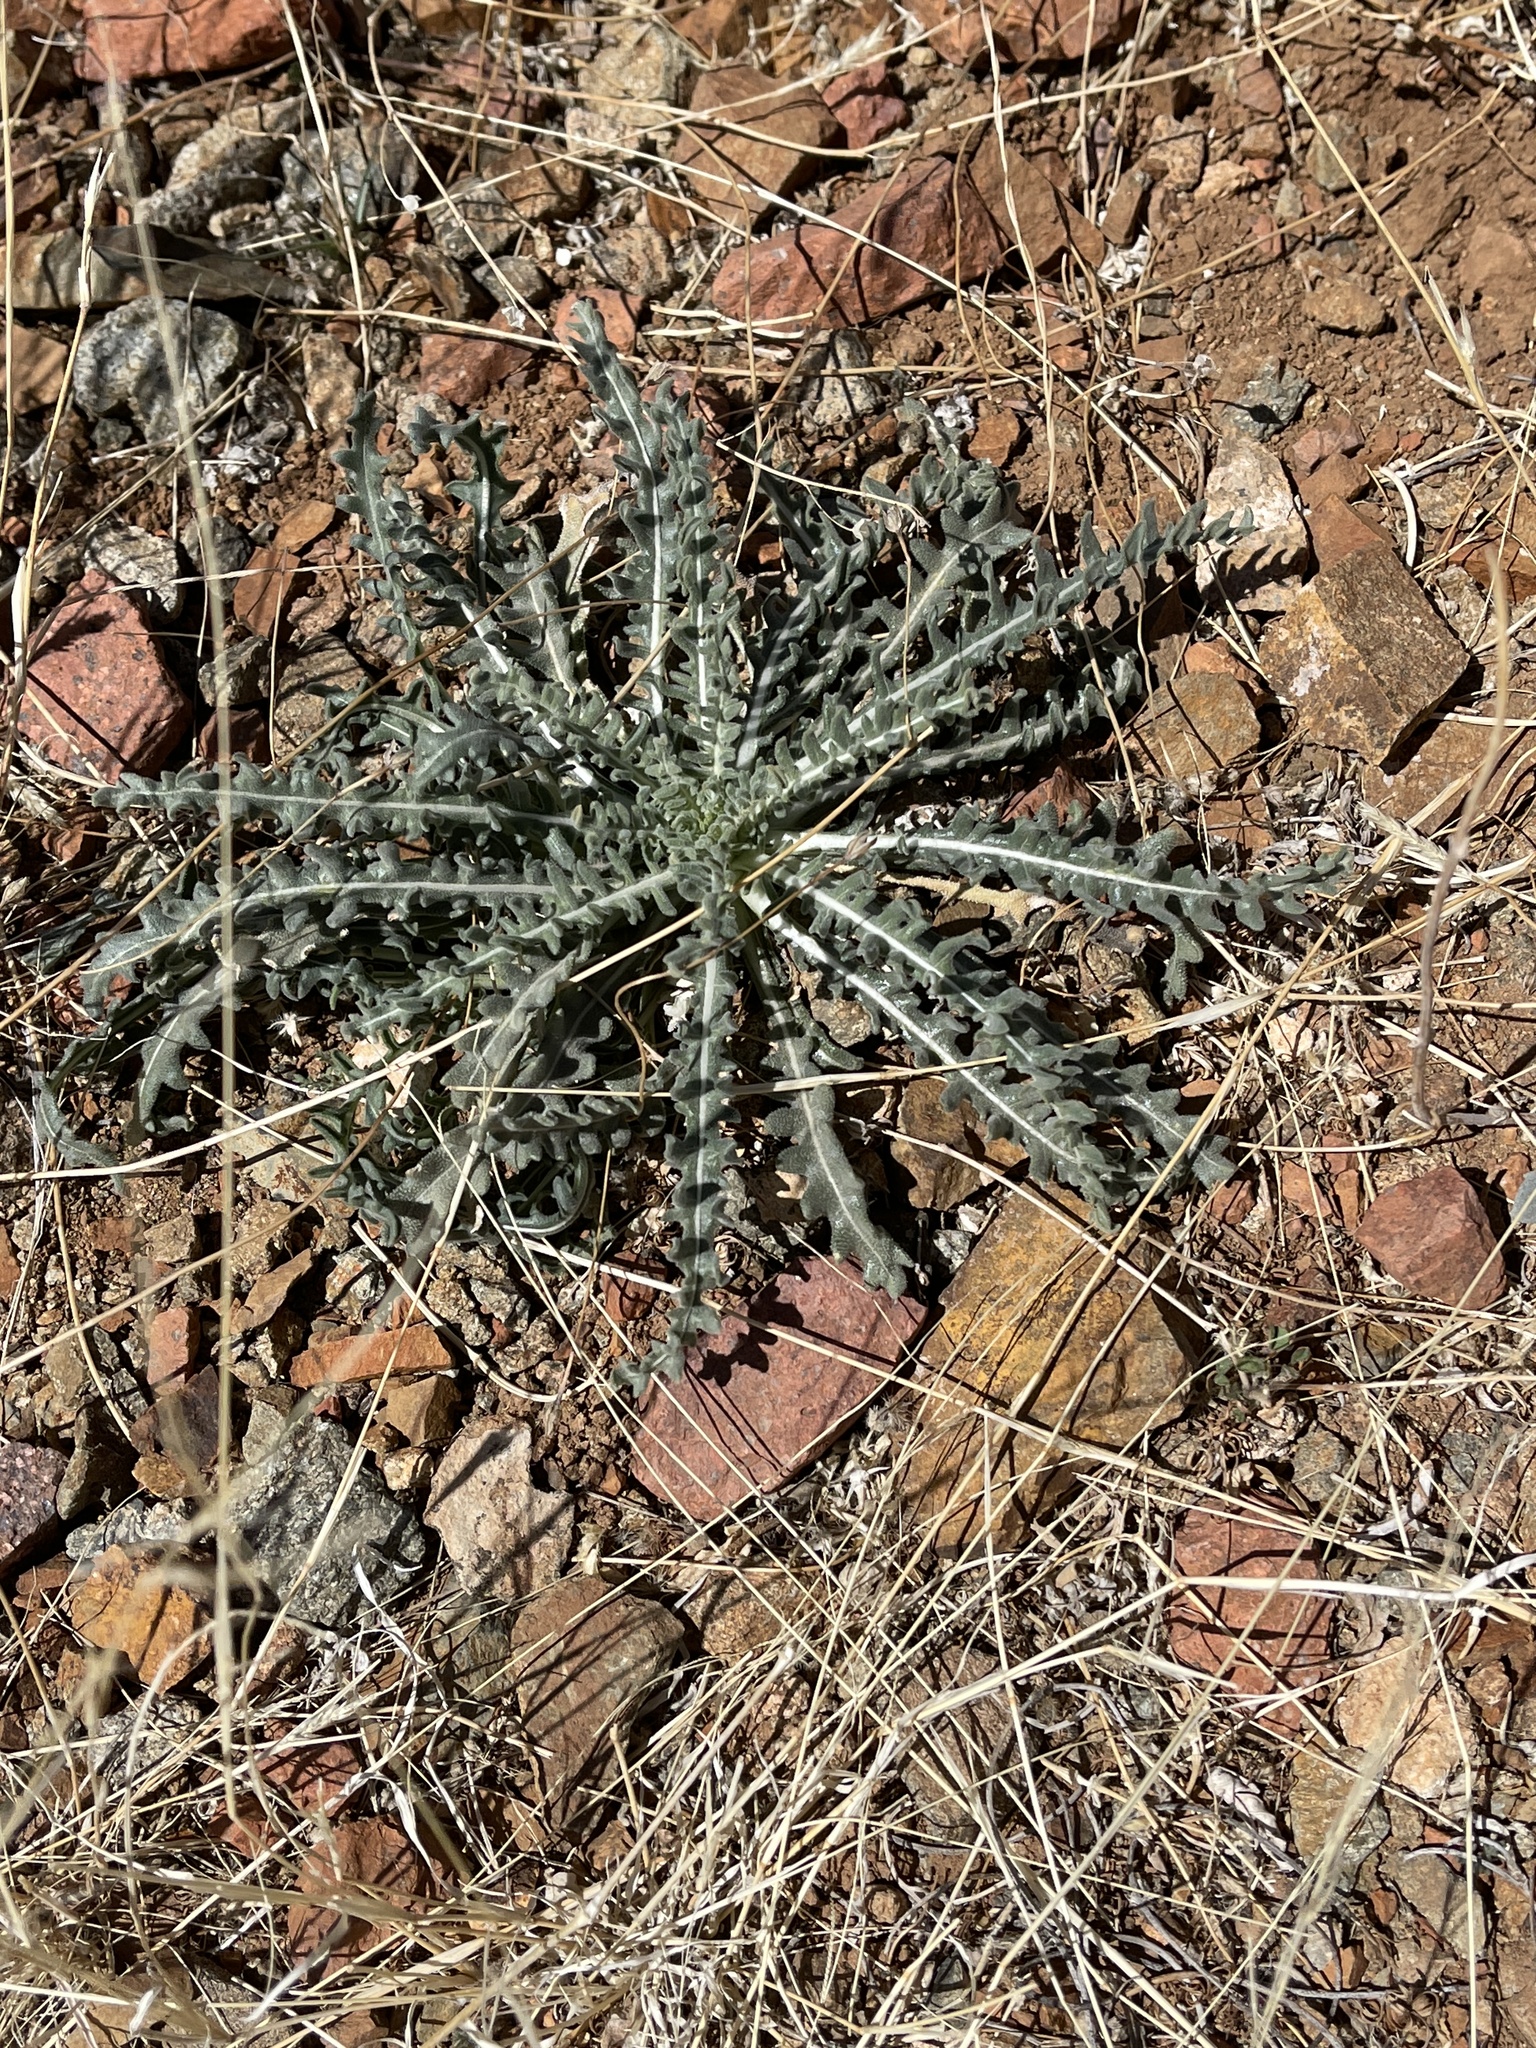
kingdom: Plantae
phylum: Tracheophyta
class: Magnoliopsida
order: Cornales
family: Loasaceae
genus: Mentzelia
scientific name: Mentzelia procera
